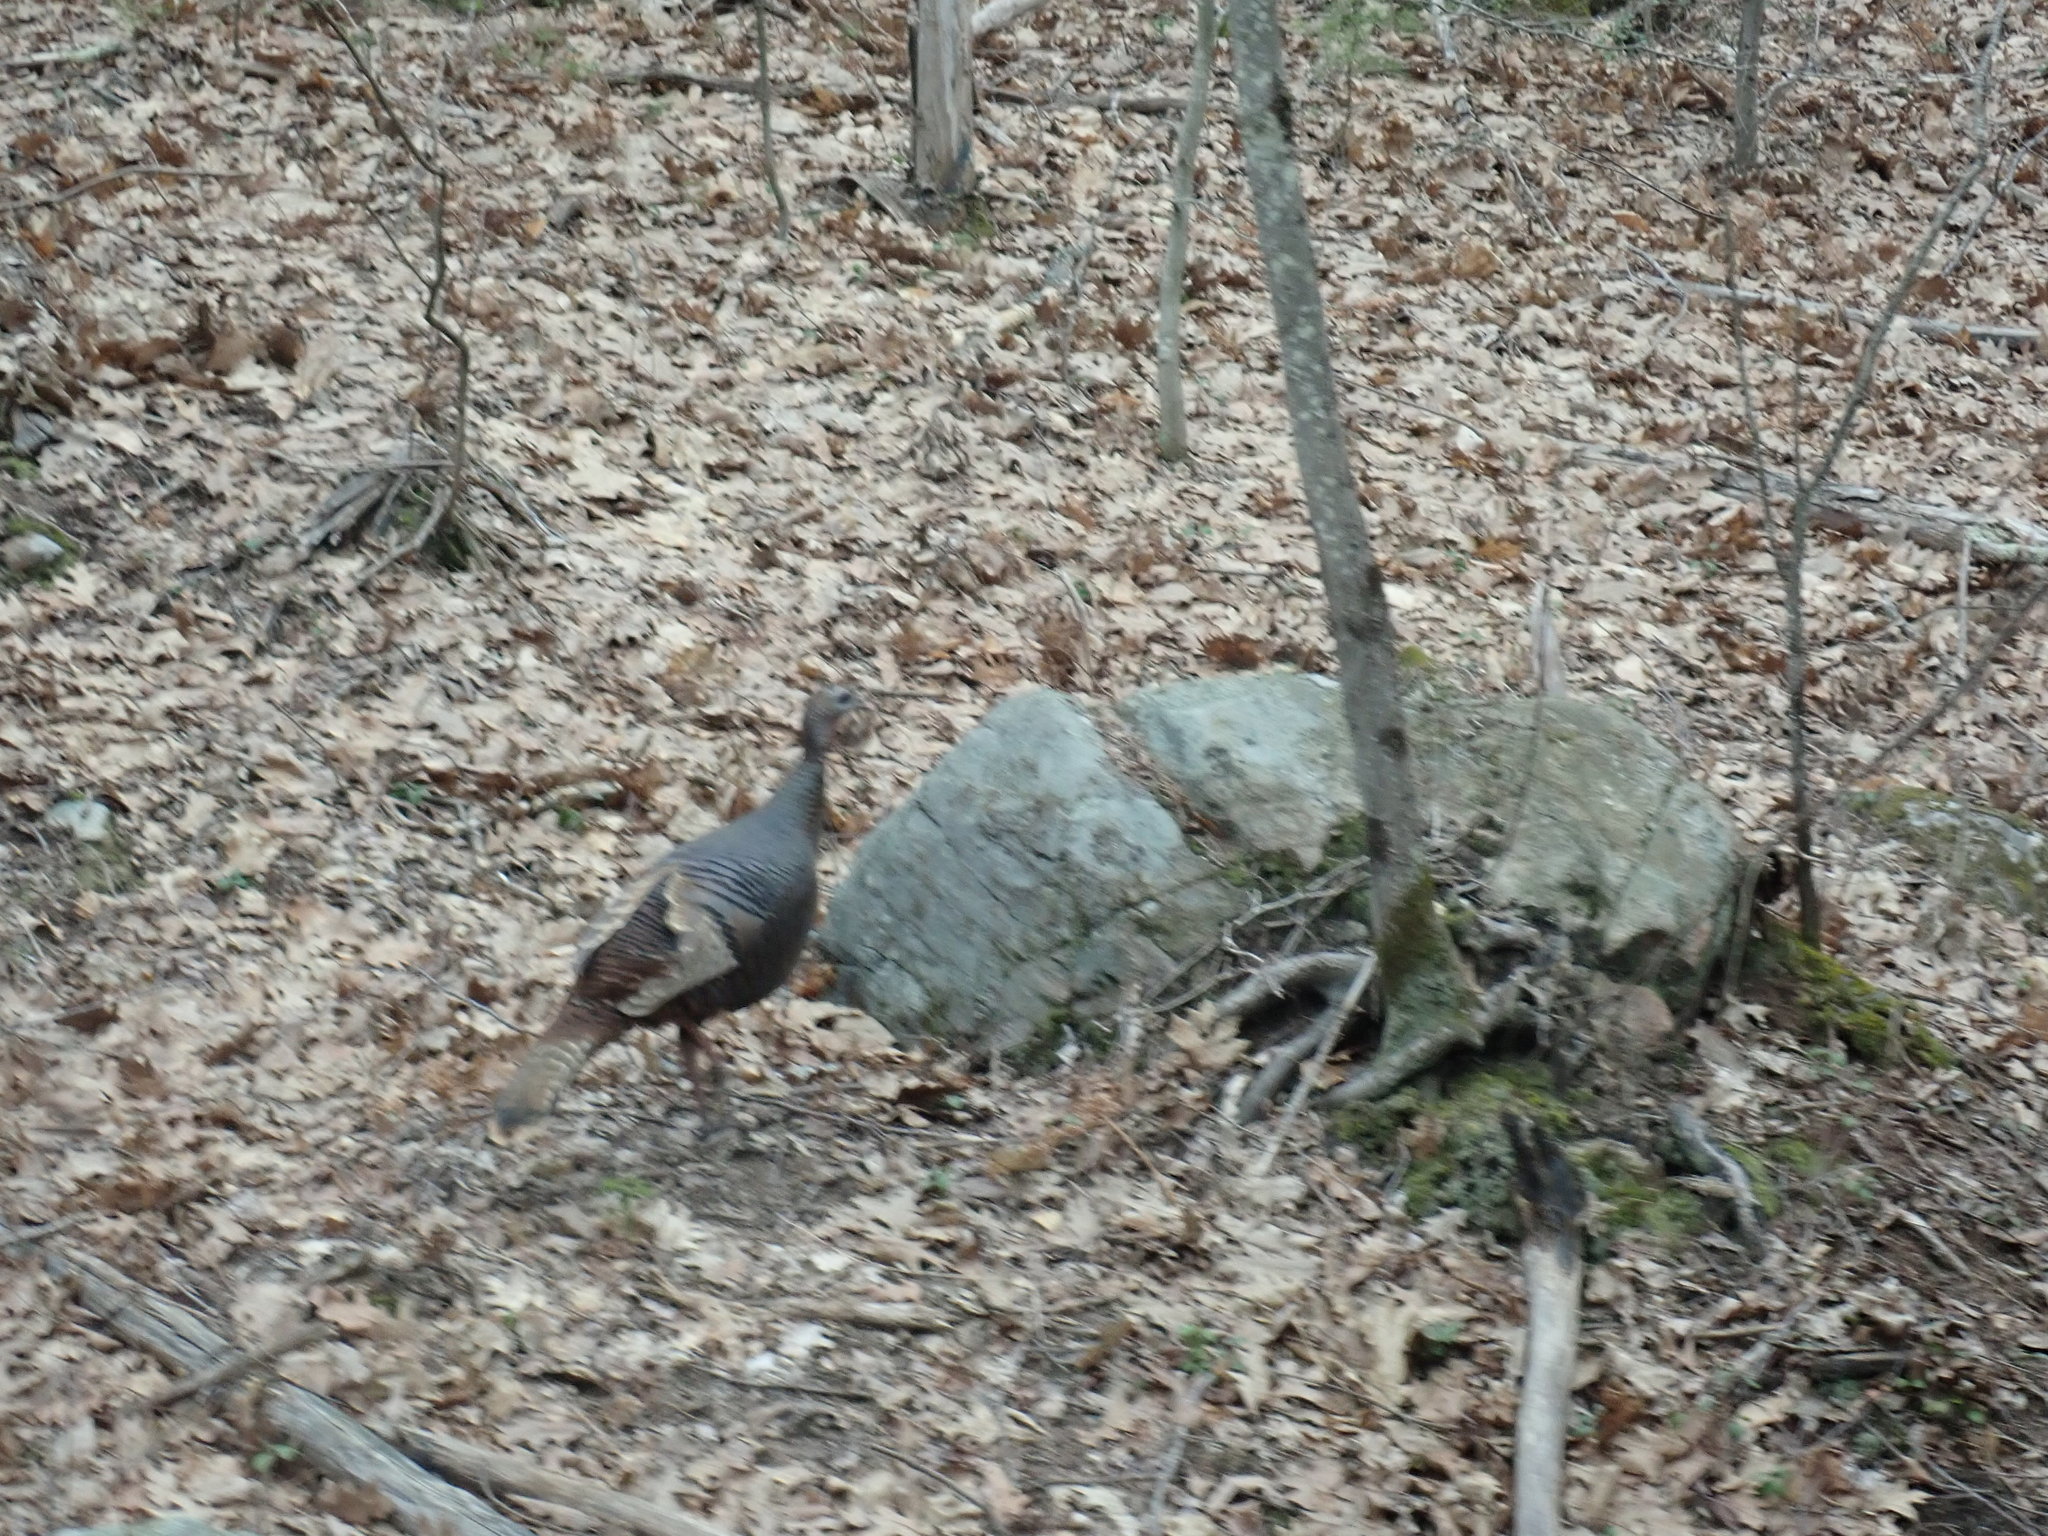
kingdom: Animalia
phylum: Chordata
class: Aves
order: Galliformes
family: Phasianidae
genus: Meleagris
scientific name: Meleagris gallopavo
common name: Wild turkey
